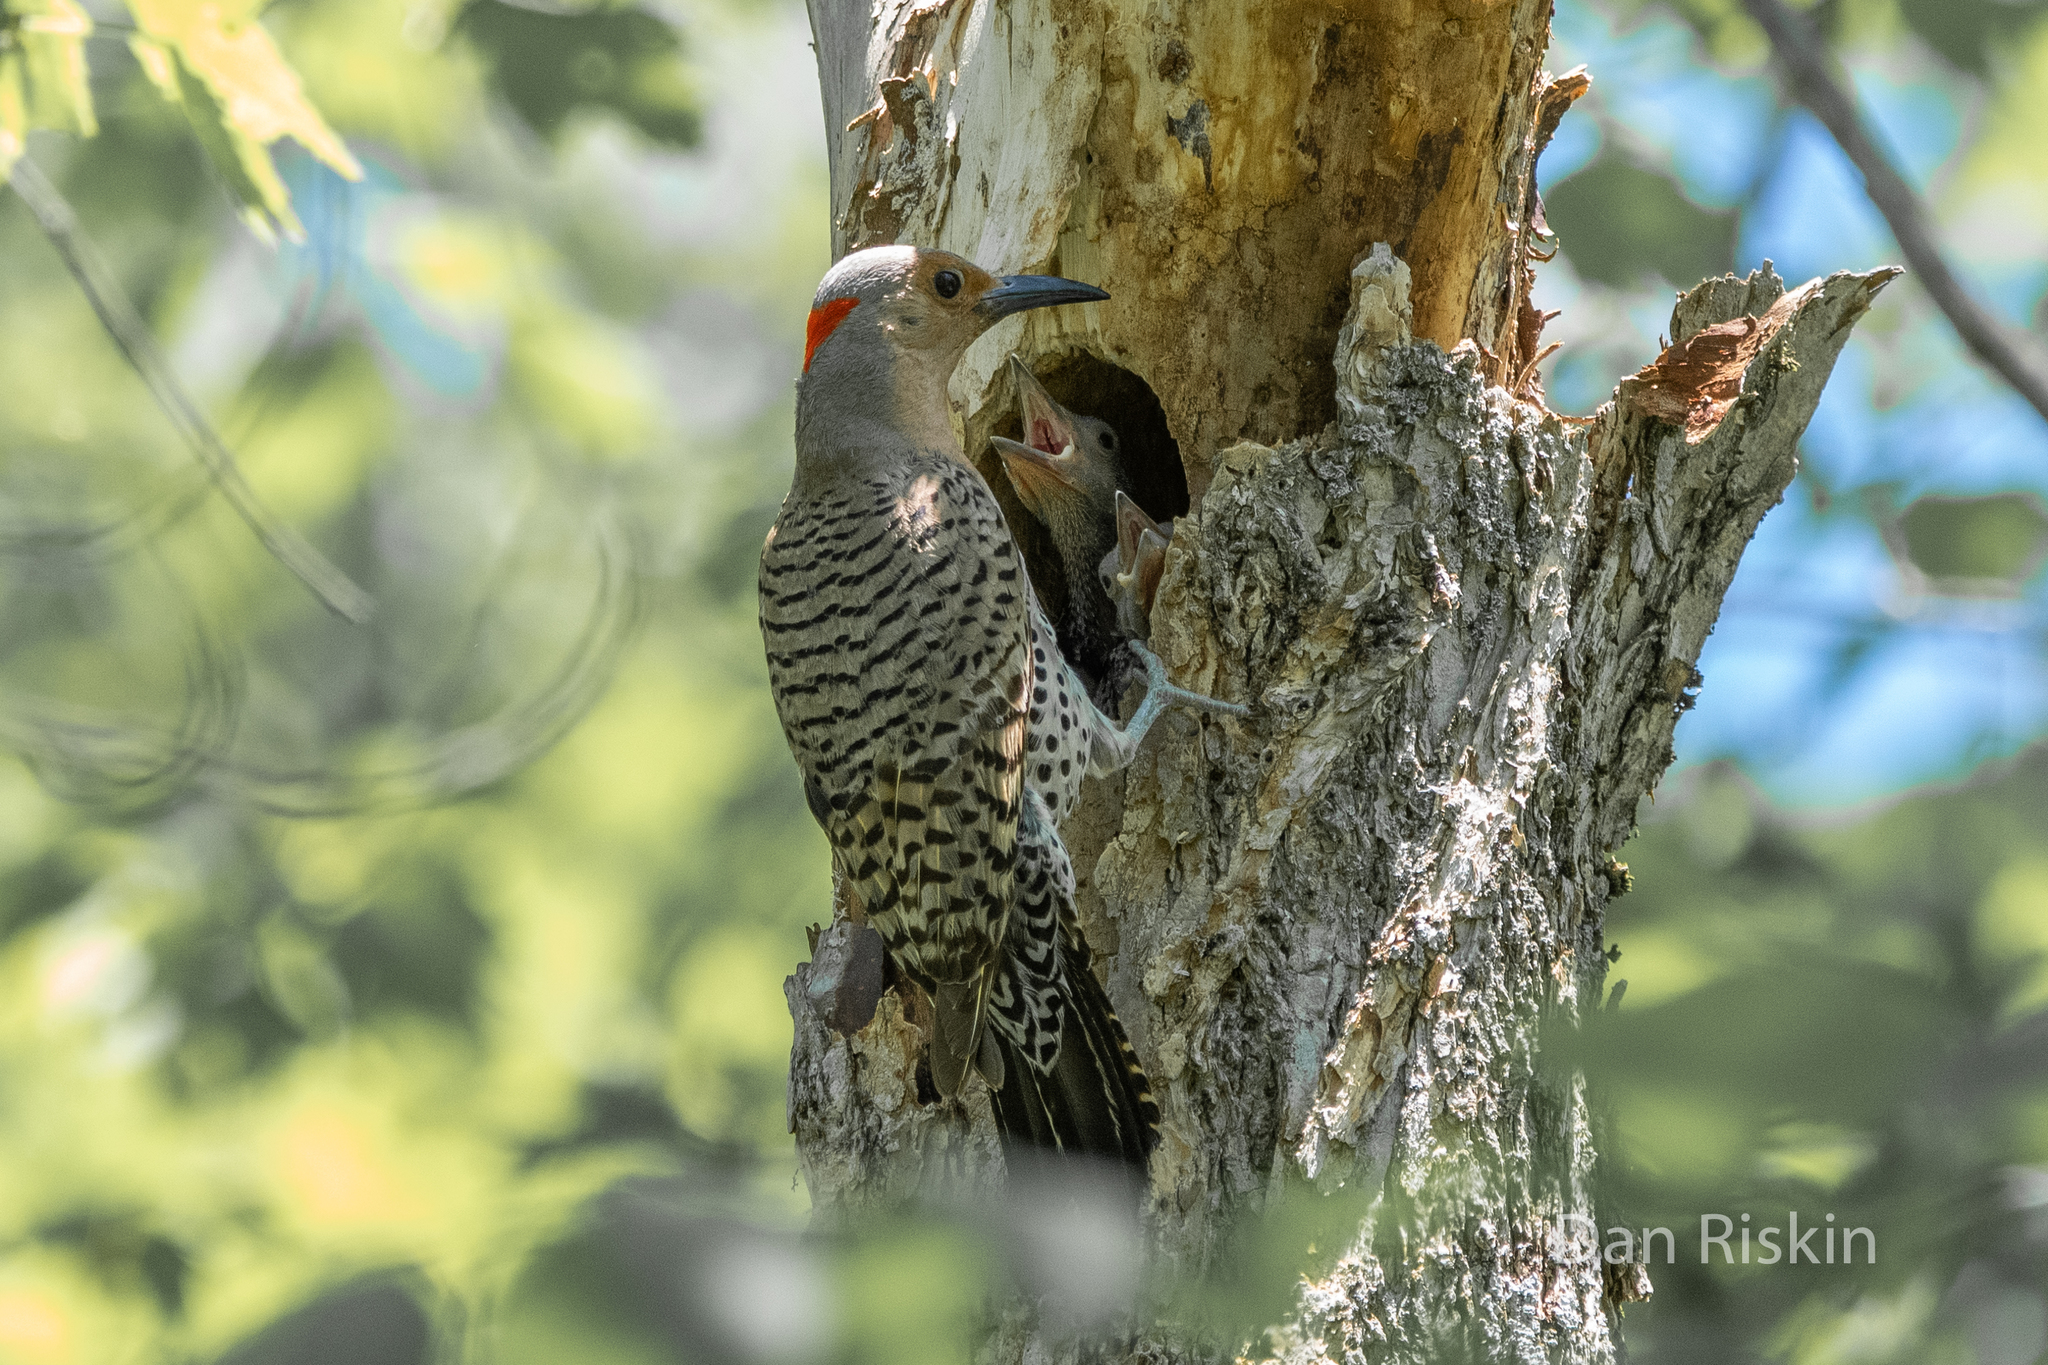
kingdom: Animalia
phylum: Chordata
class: Aves
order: Piciformes
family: Picidae
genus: Colaptes
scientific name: Colaptes auratus
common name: Northern flicker
